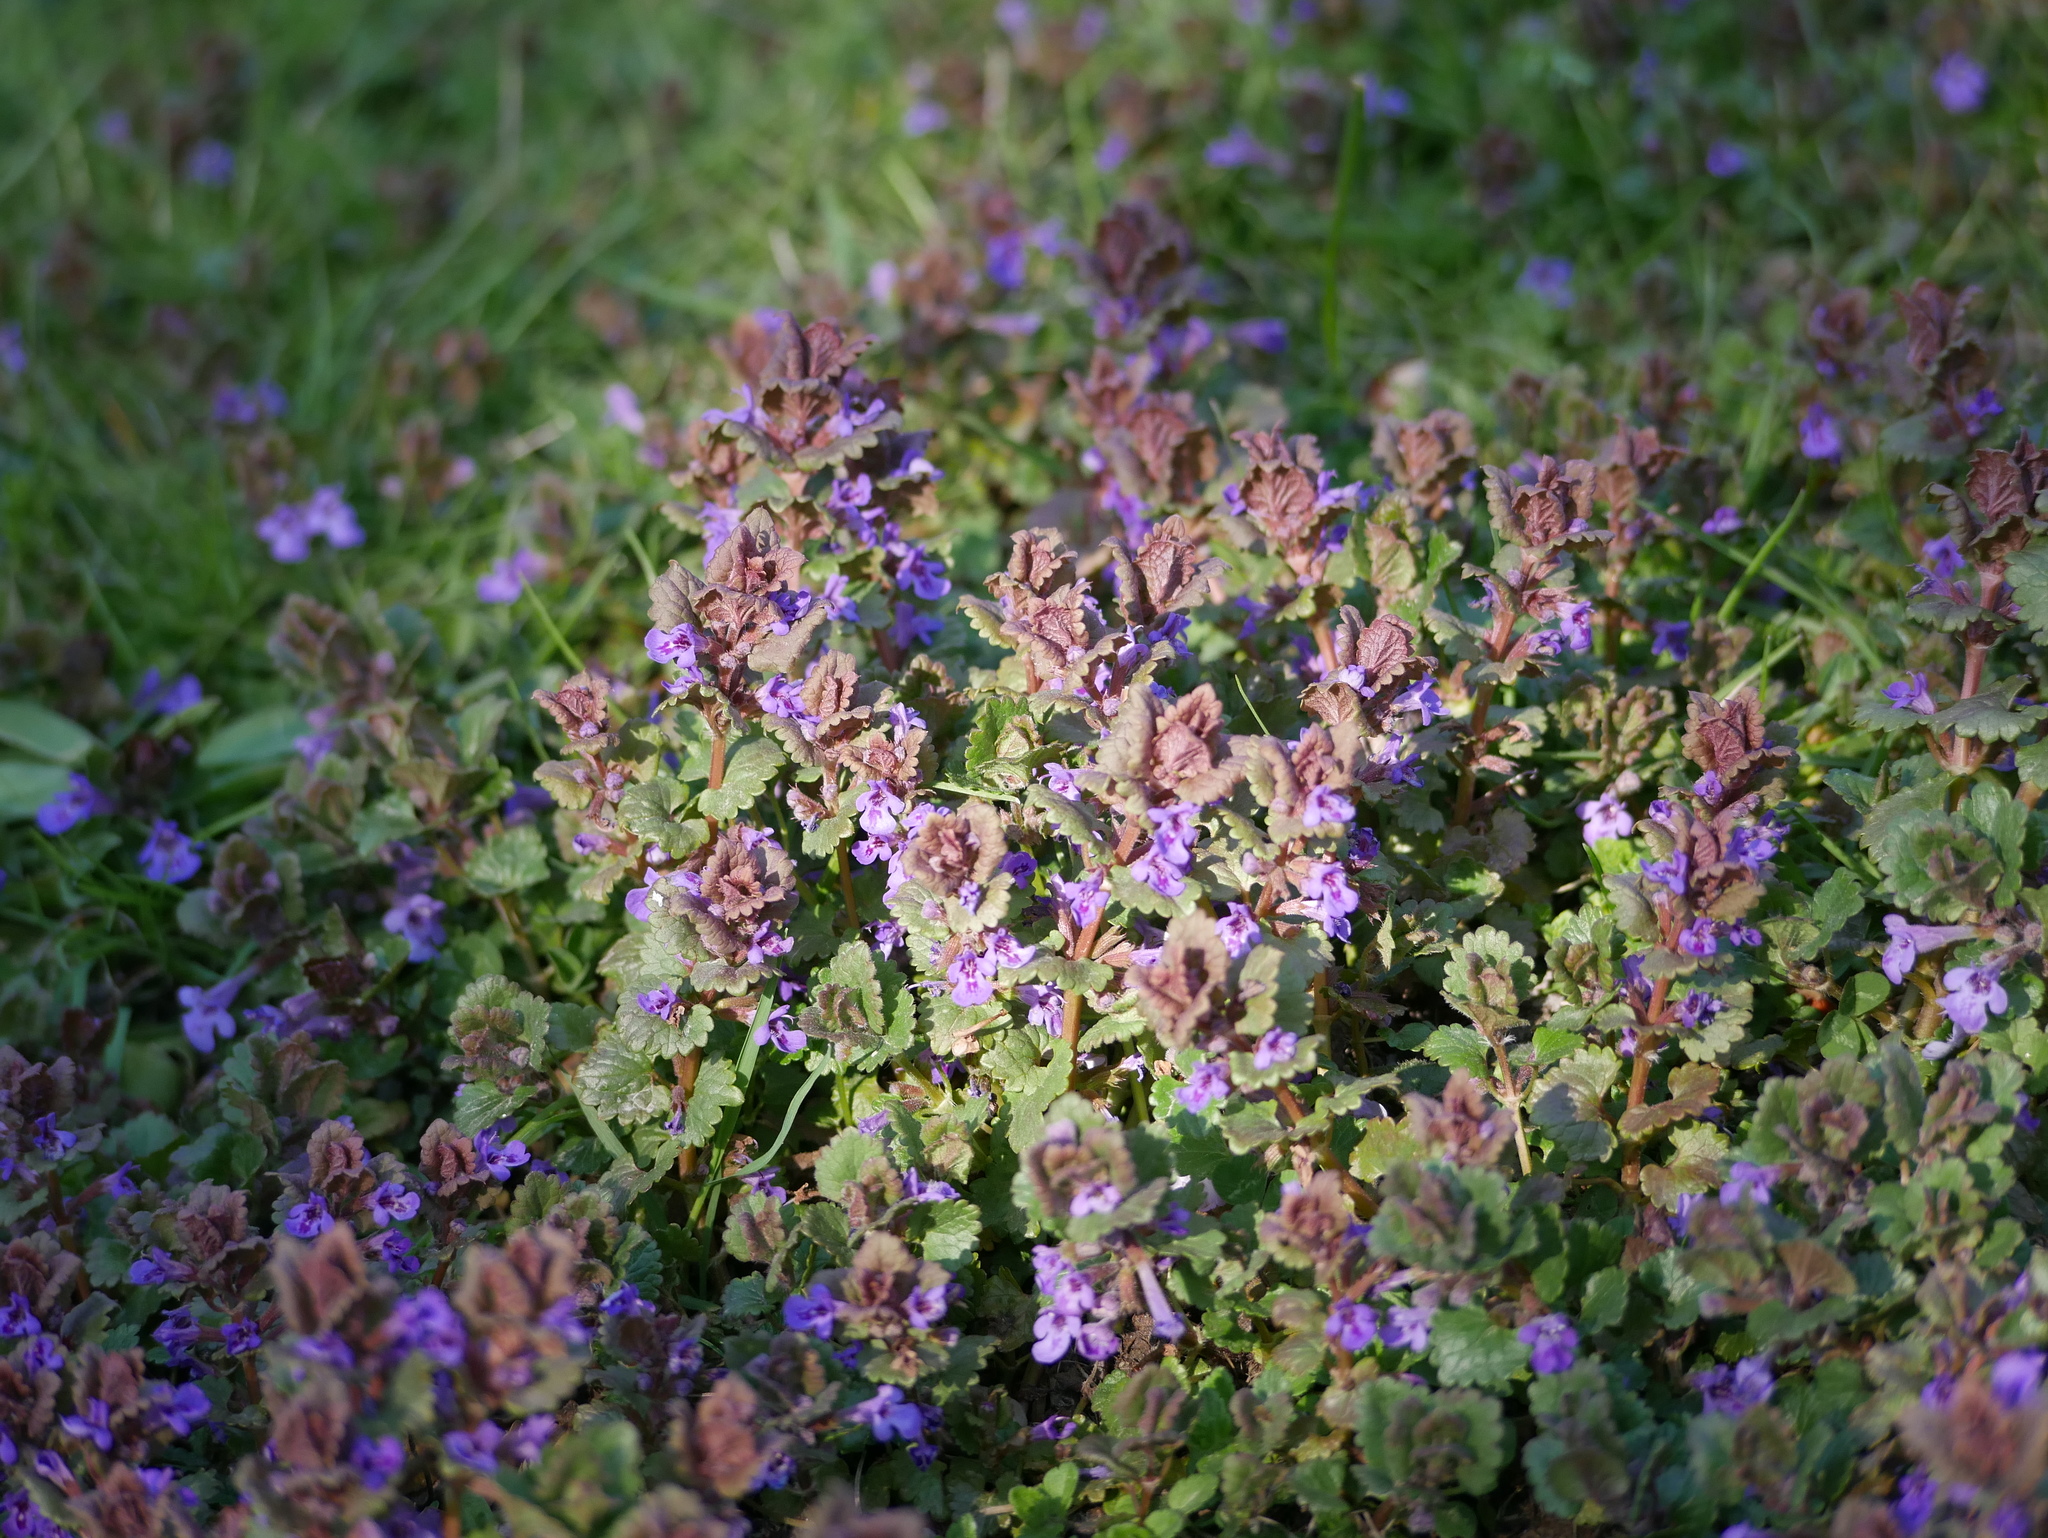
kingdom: Plantae
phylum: Tracheophyta
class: Magnoliopsida
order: Lamiales
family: Lamiaceae
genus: Glechoma
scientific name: Glechoma hederacea
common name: Ground ivy
